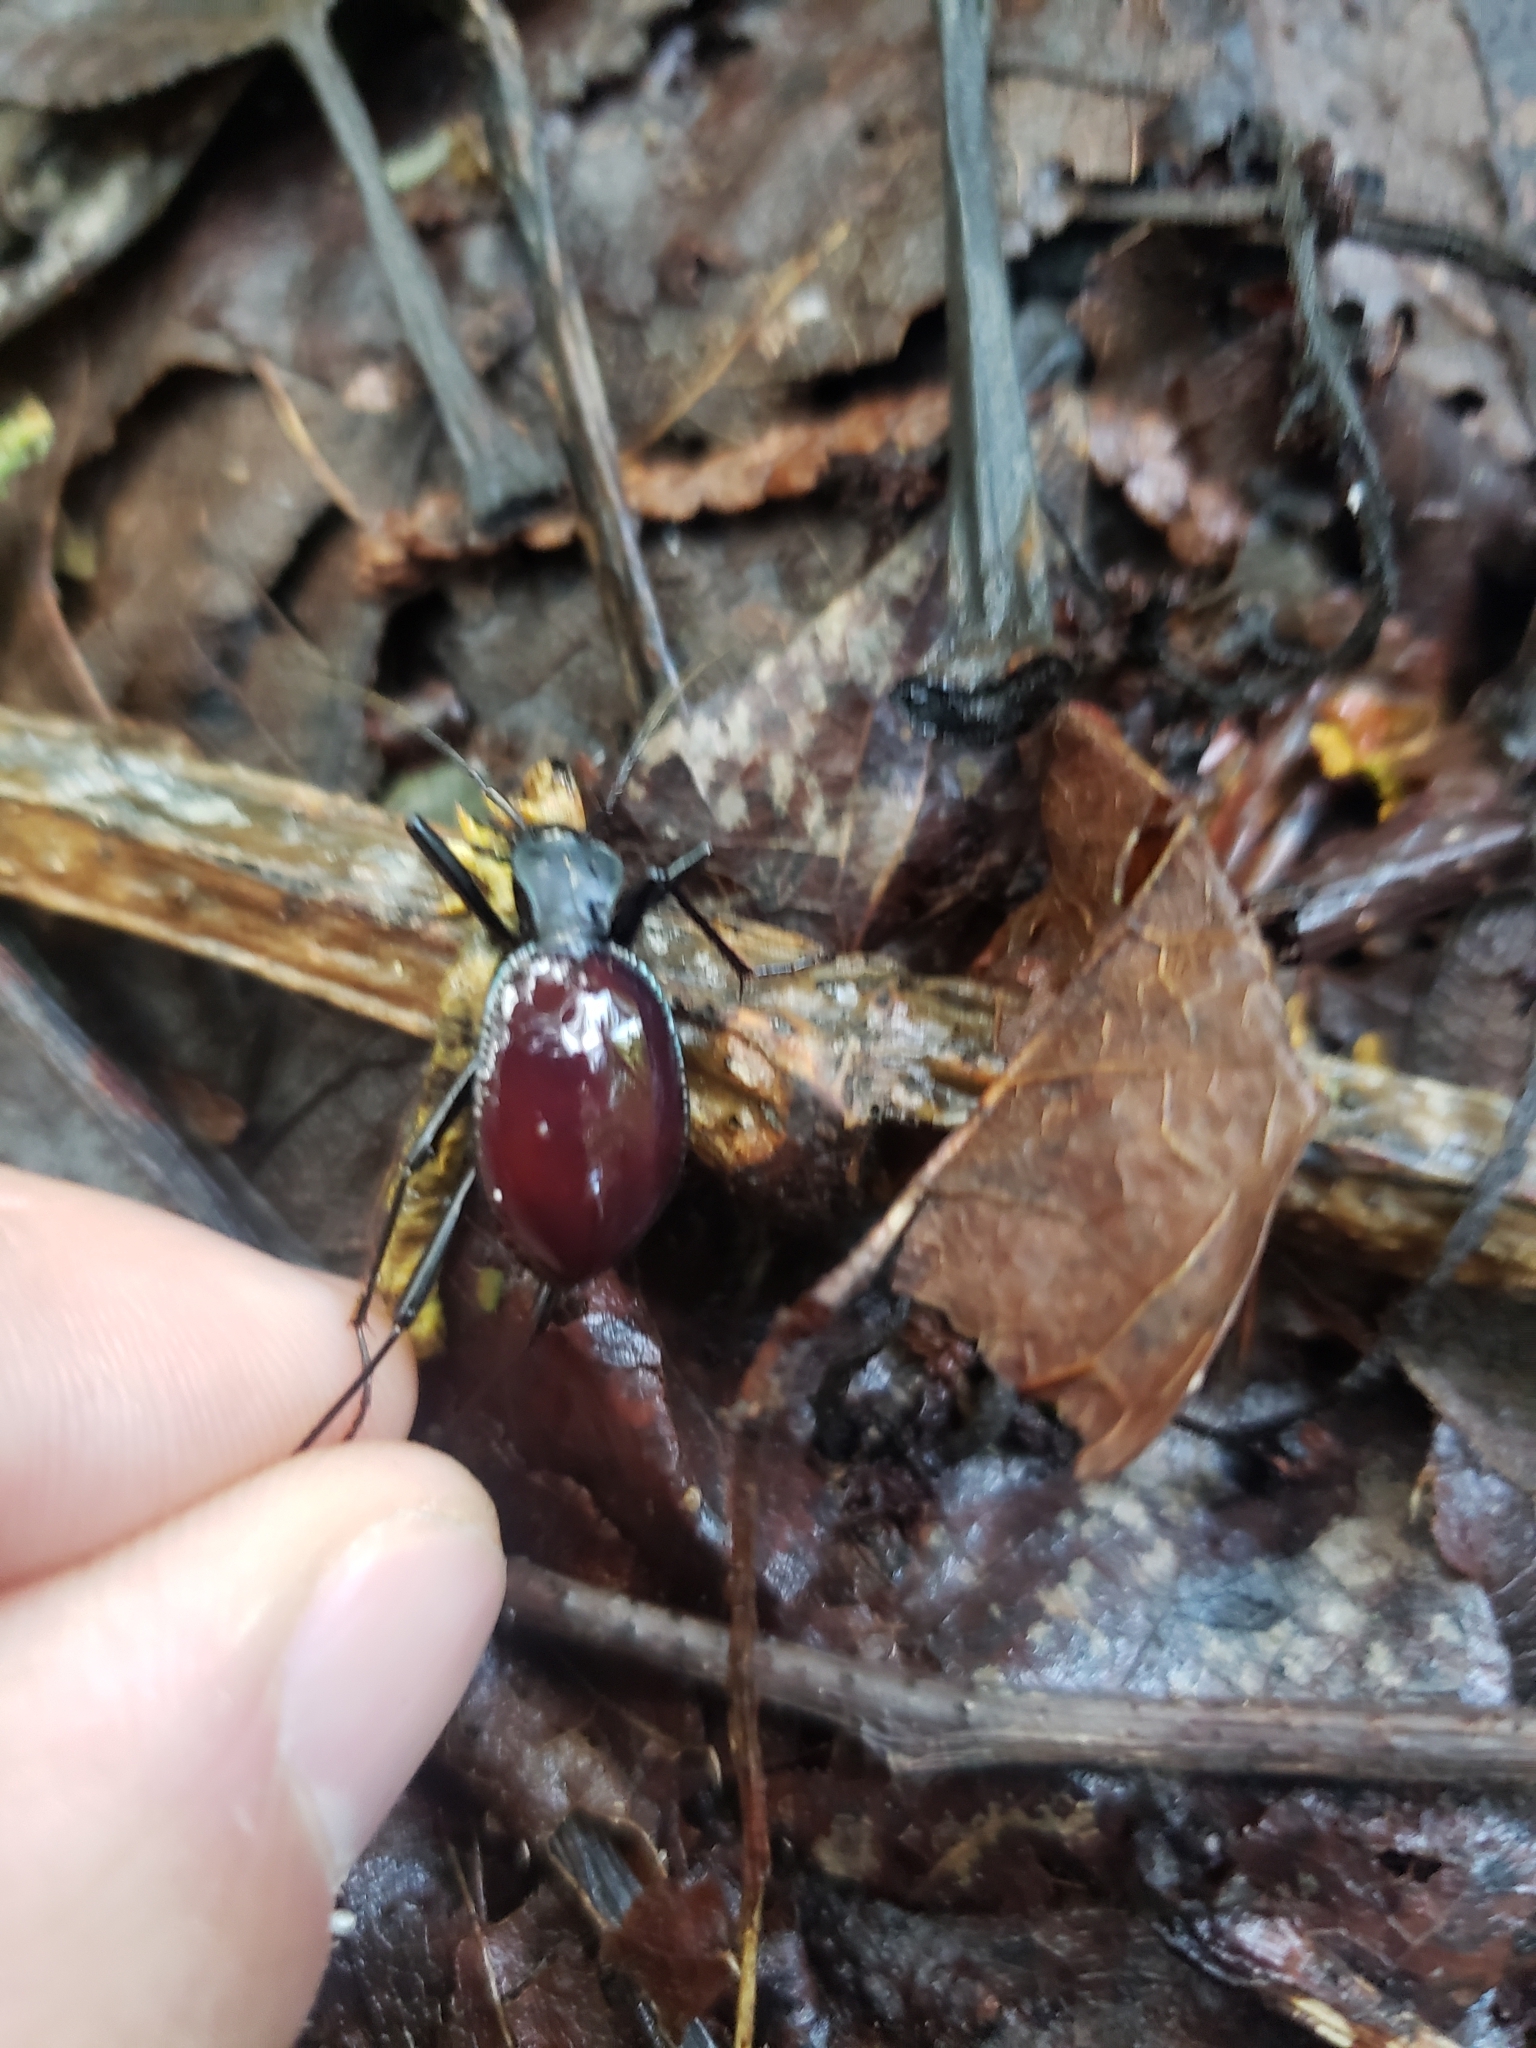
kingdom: Animalia
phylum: Arthropoda
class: Insecta
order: Coleoptera
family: Carabidae
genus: Scaphinotus
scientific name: Scaphinotus angusticollis
